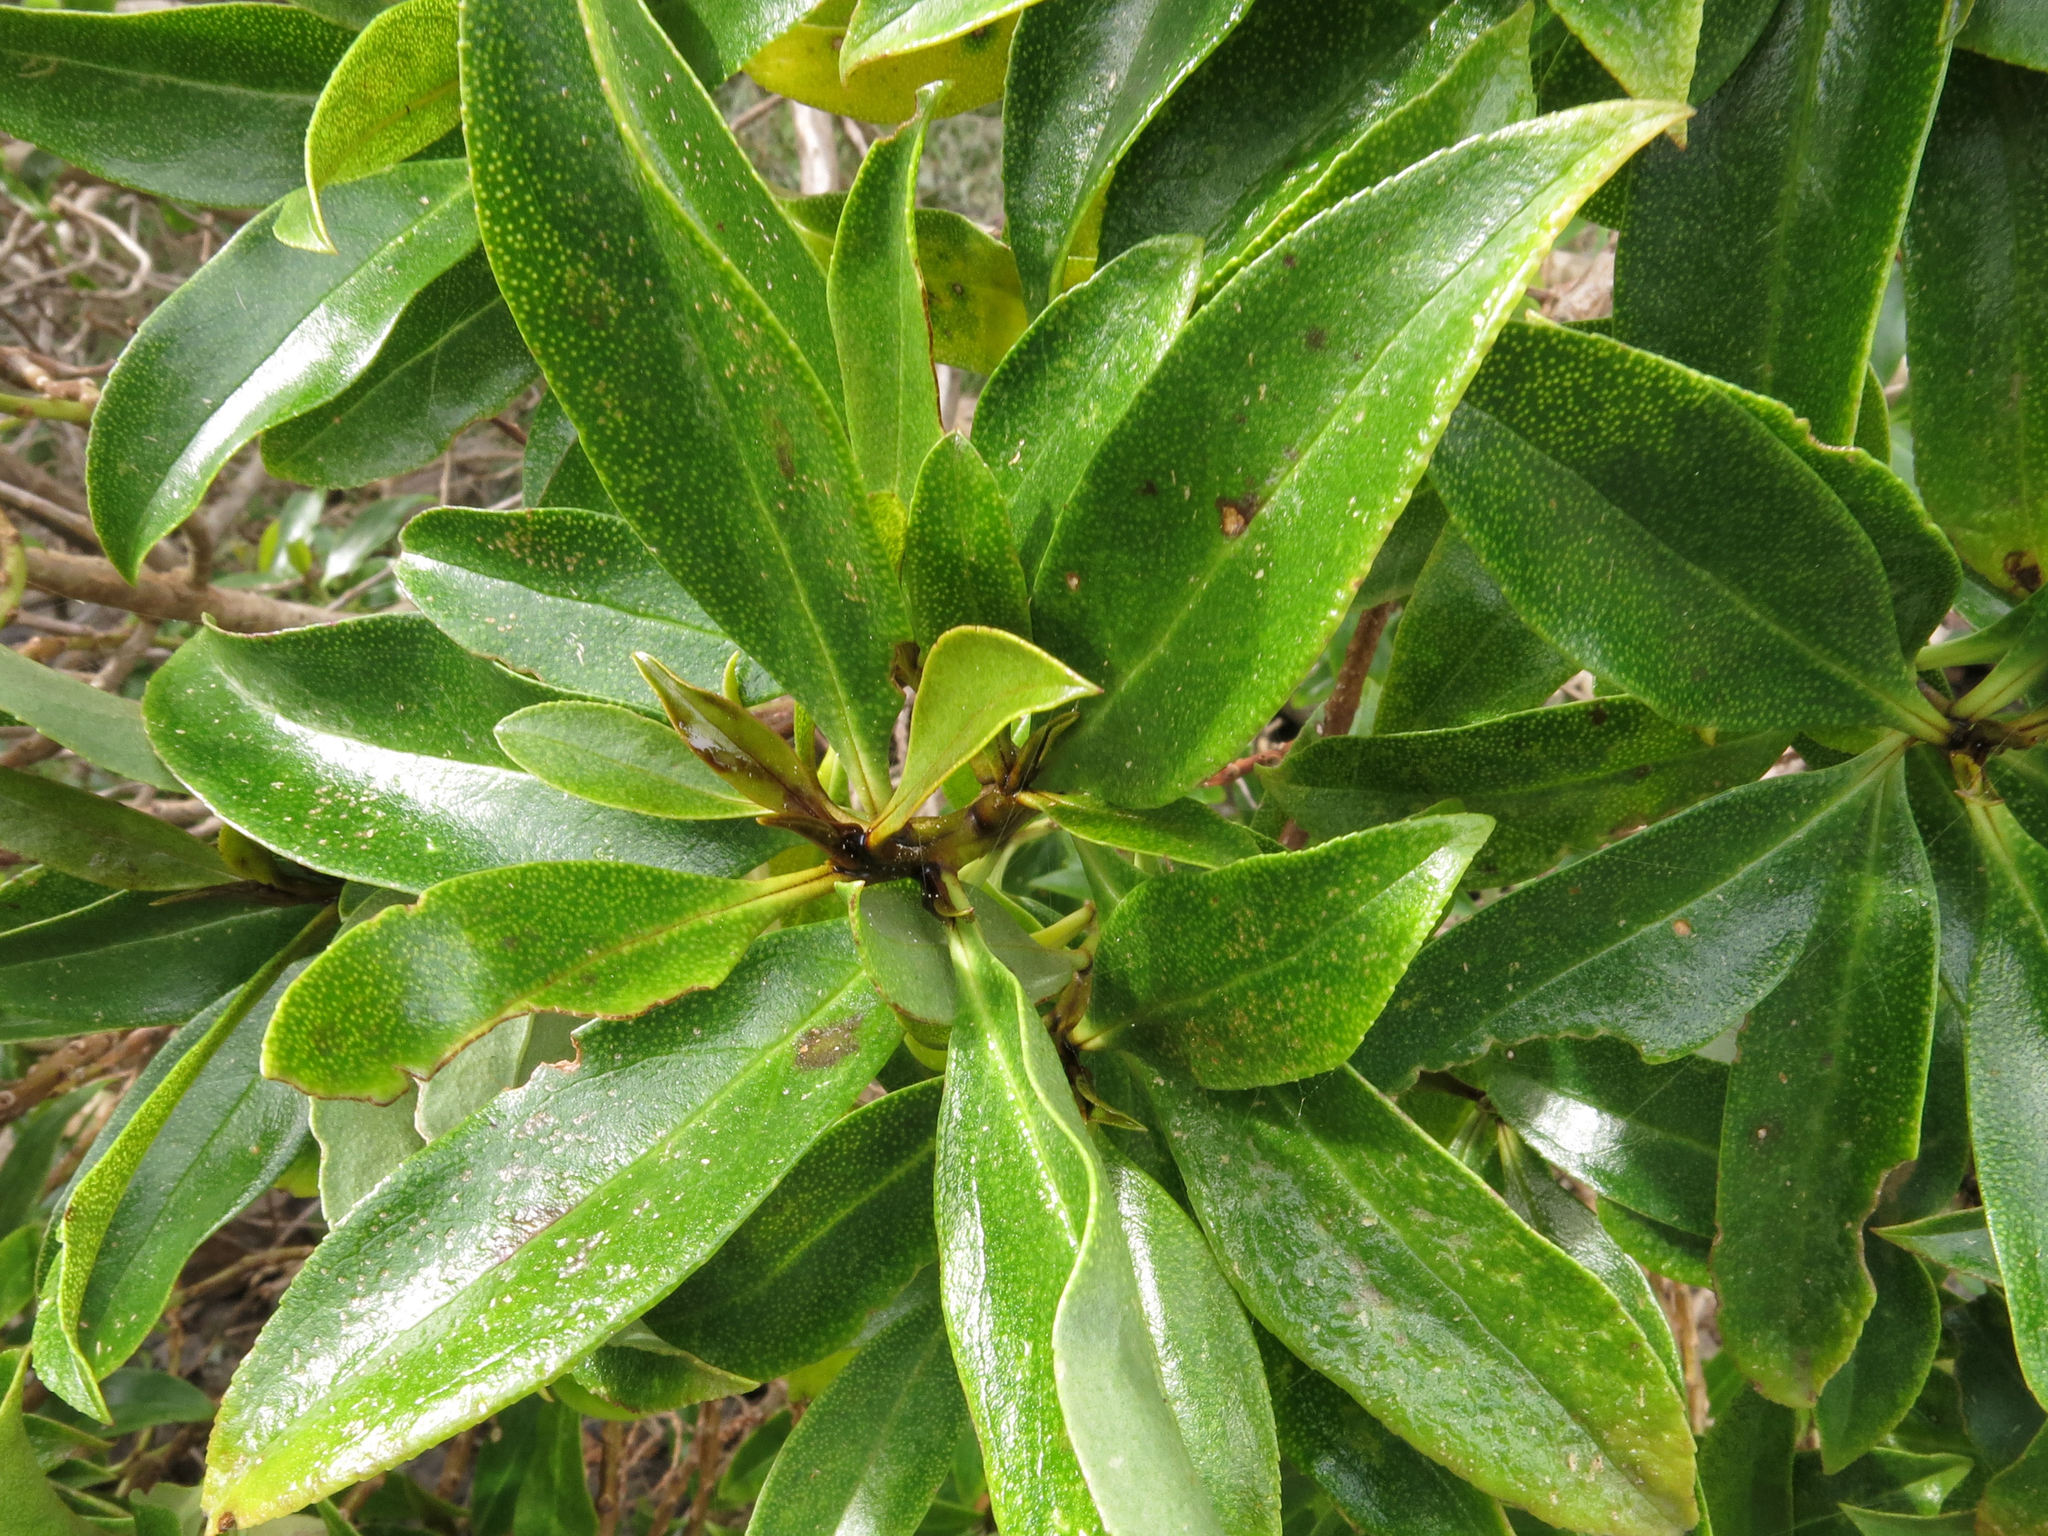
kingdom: Plantae
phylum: Tracheophyta
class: Magnoliopsida
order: Lamiales
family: Scrophulariaceae
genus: Myoporum
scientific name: Myoporum laetum
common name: Ngaio tree
